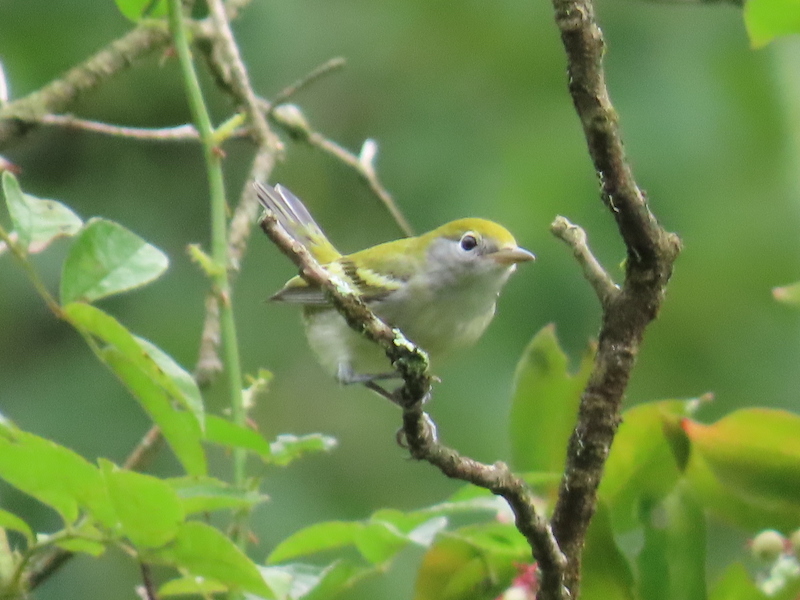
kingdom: Animalia
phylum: Chordata
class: Aves
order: Passeriformes
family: Parulidae
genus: Setophaga
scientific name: Setophaga pensylvanica
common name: Chestnut-sided warbler
